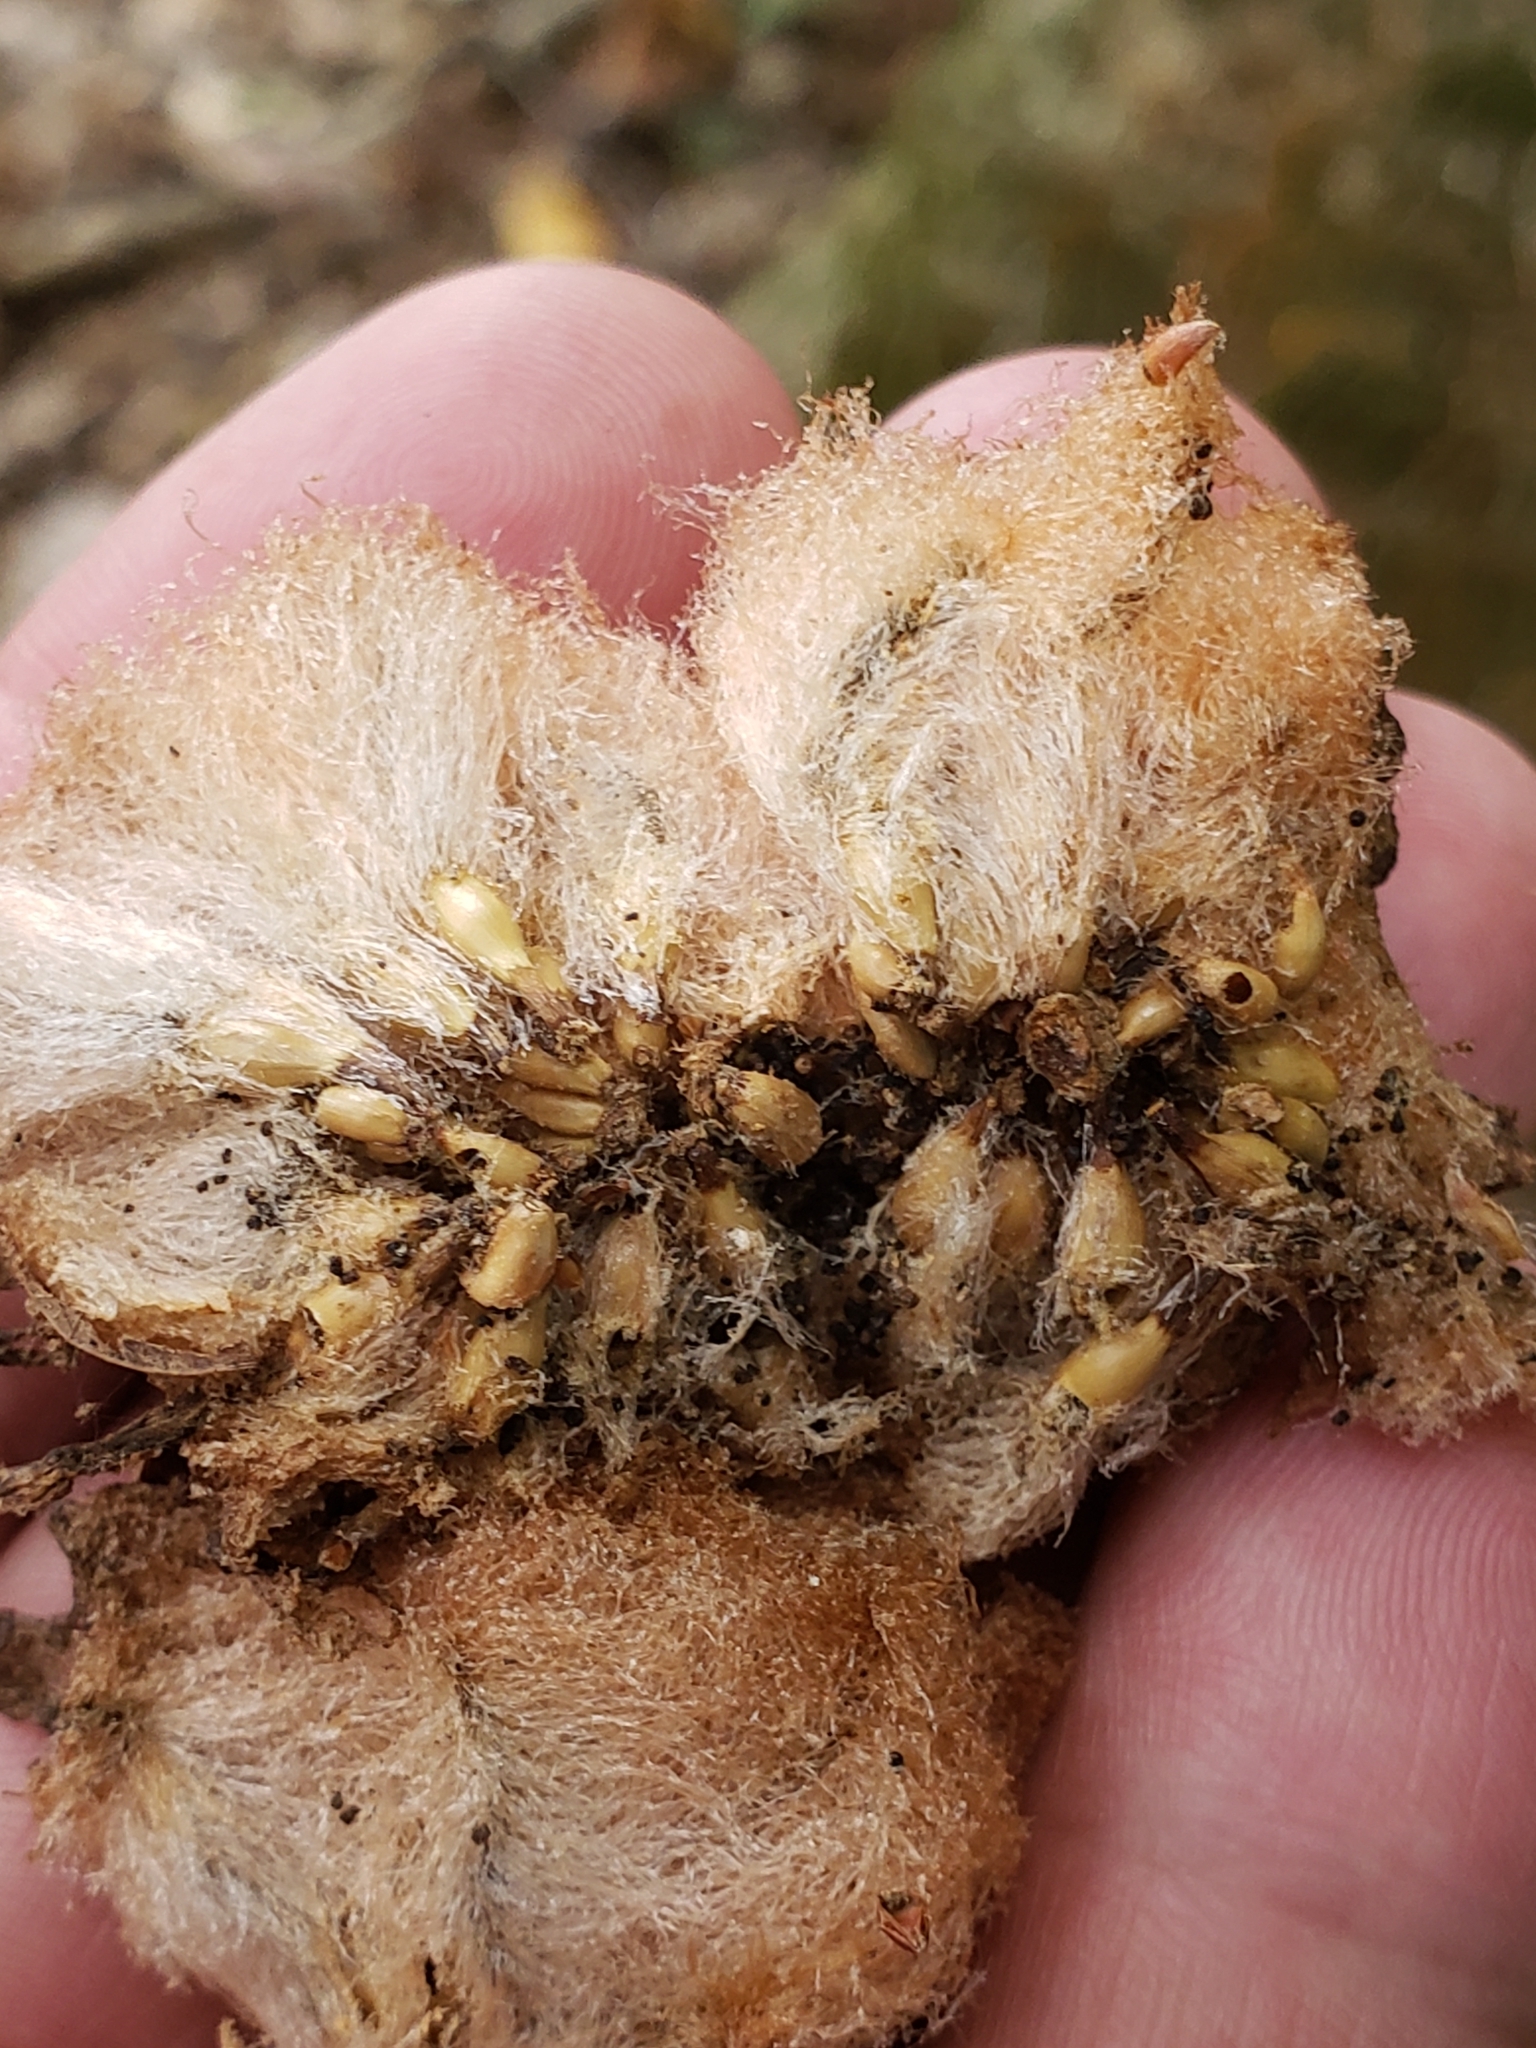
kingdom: Animalia
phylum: Arthropoda
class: Insecta
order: Hymenoptera
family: Cynipidae
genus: Callirhytis
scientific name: Callirhytis
